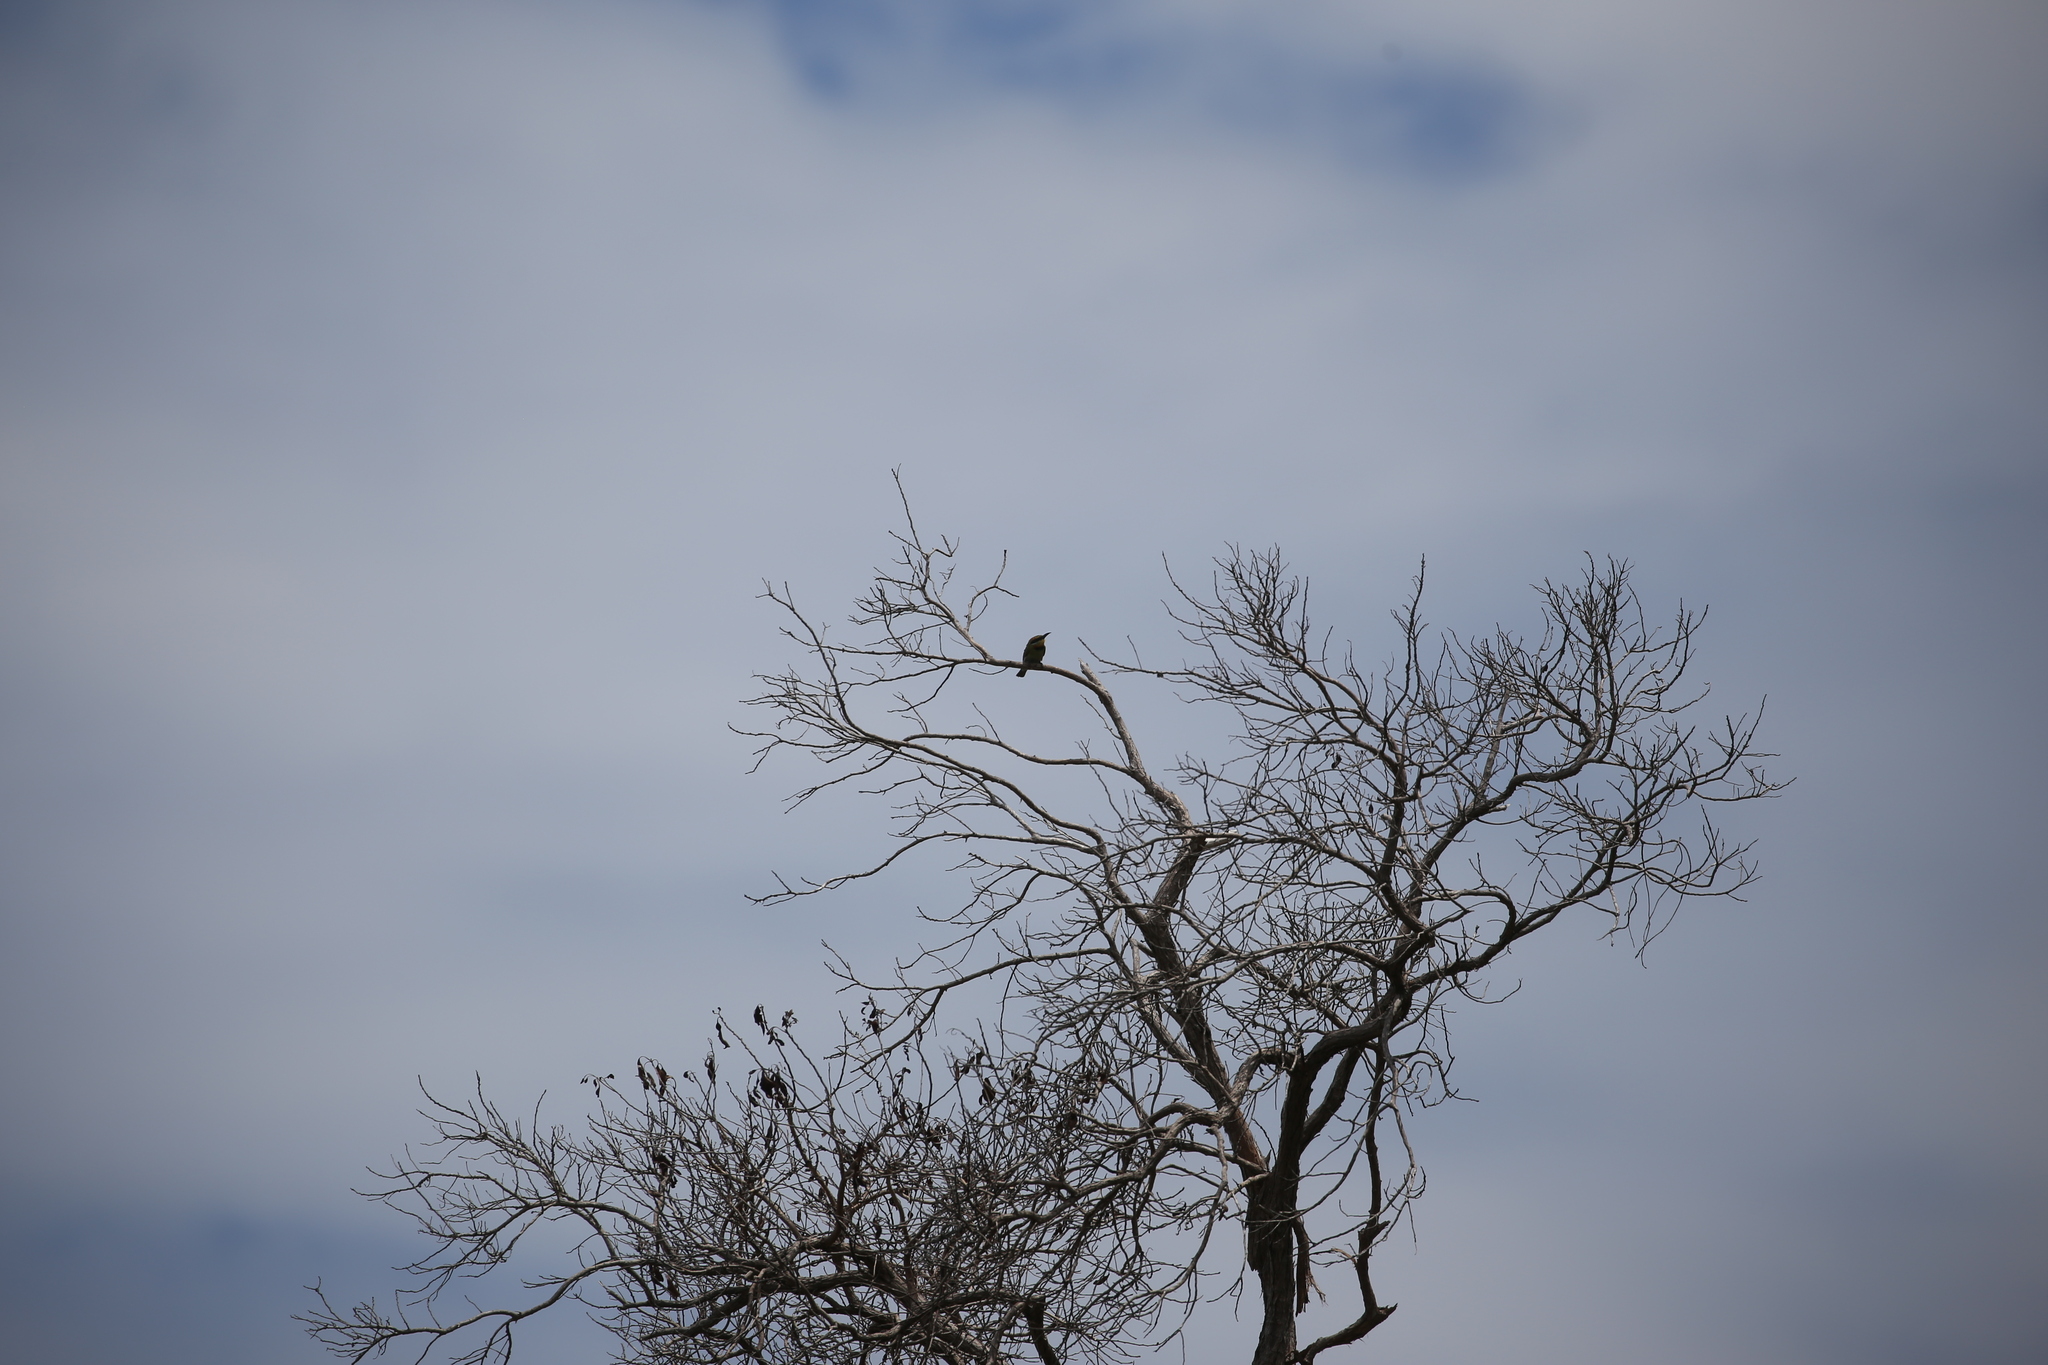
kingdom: Animalia
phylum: Chordata
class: Aves
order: Coraciiformes
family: Meropidae
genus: Merops
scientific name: Merops ornatus
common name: Rainbow bee-eater
